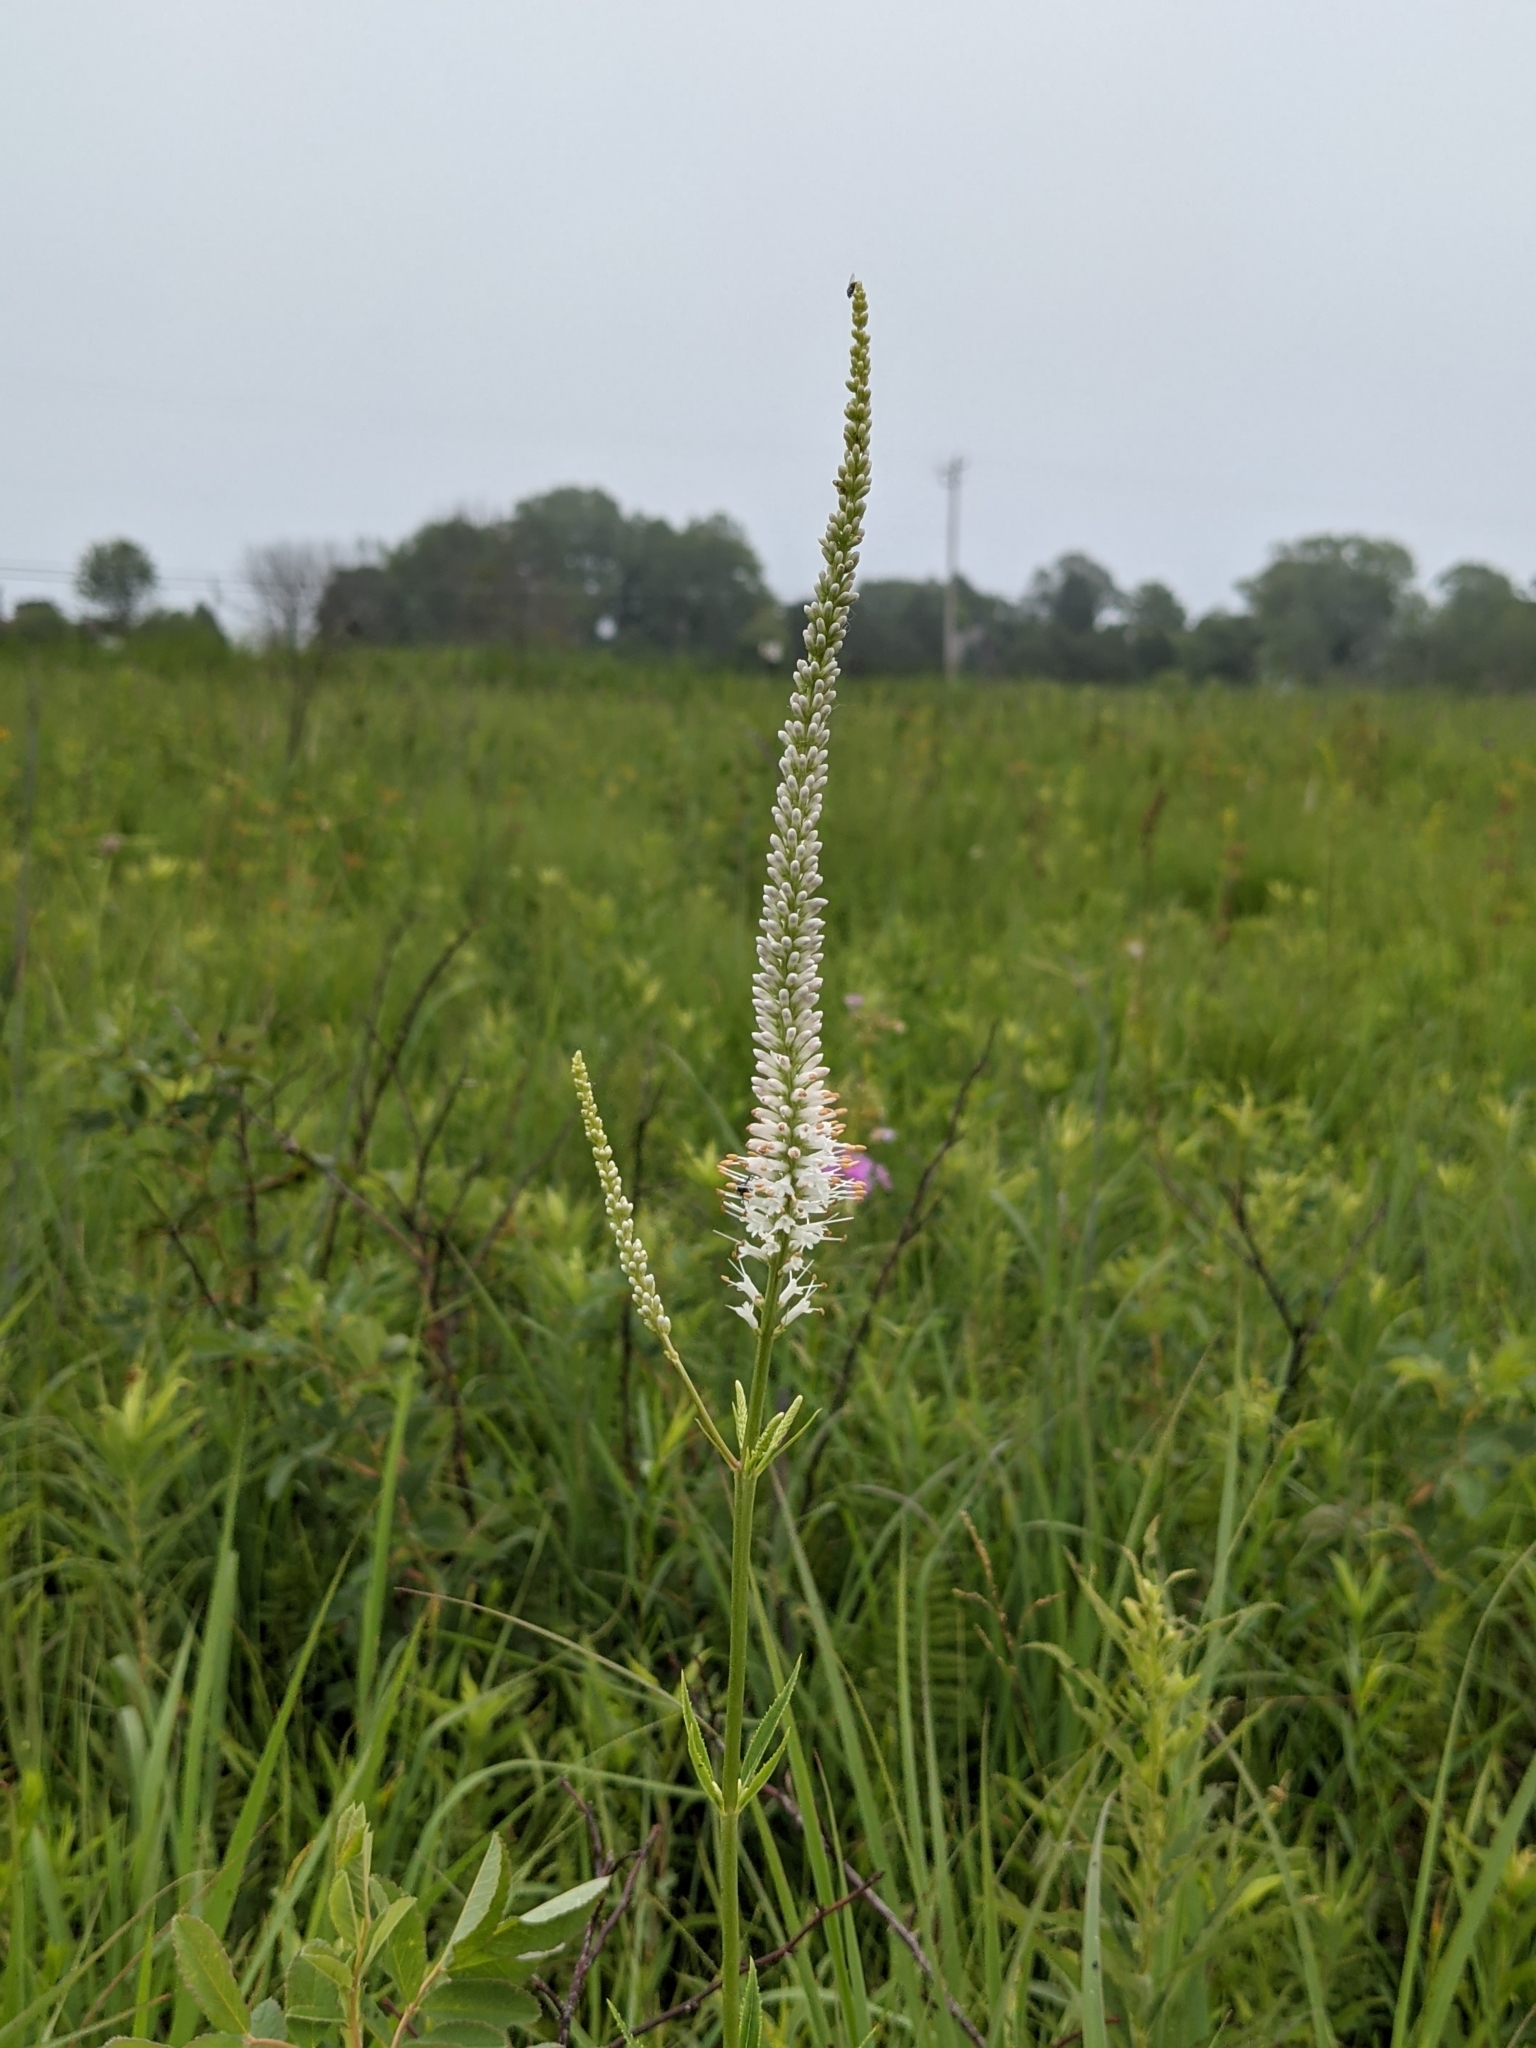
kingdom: Plantae
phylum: Tracheophyta
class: Magnoliopsida
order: Lamiales
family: Plantaginaceae
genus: Veronicastrum
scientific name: Veronicastrum virginicum
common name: Blackroot
